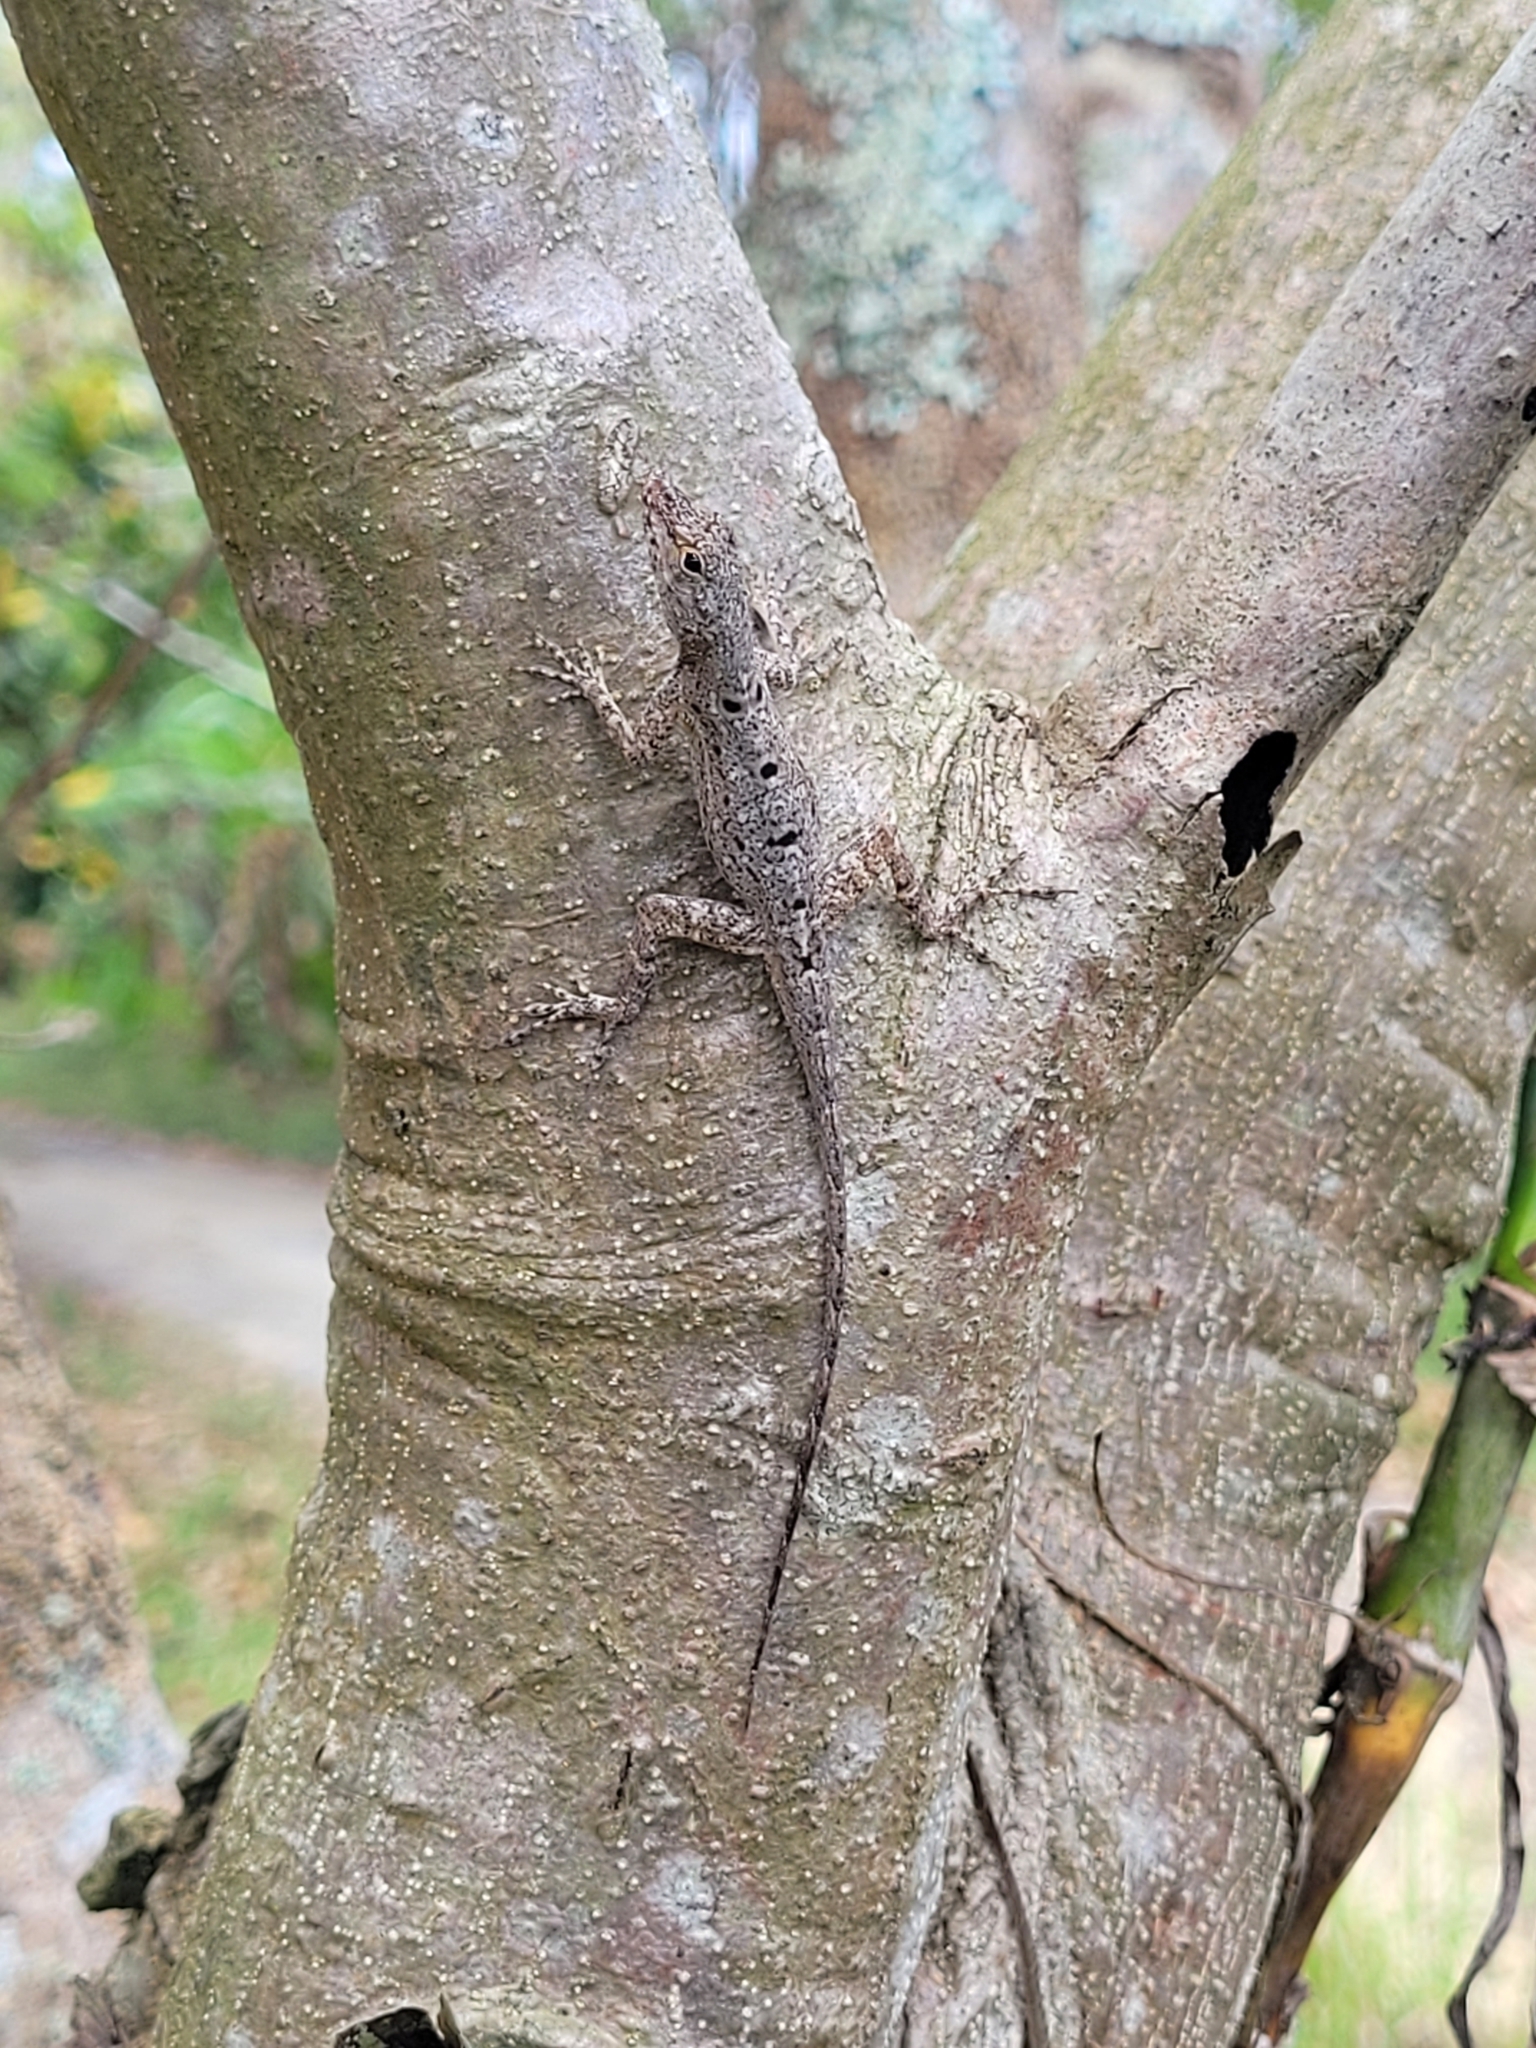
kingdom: Animalia
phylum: Chordata
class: Squamata
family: Dactyloidae
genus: Anolis
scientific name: Anolis stratulus
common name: Banded anole
